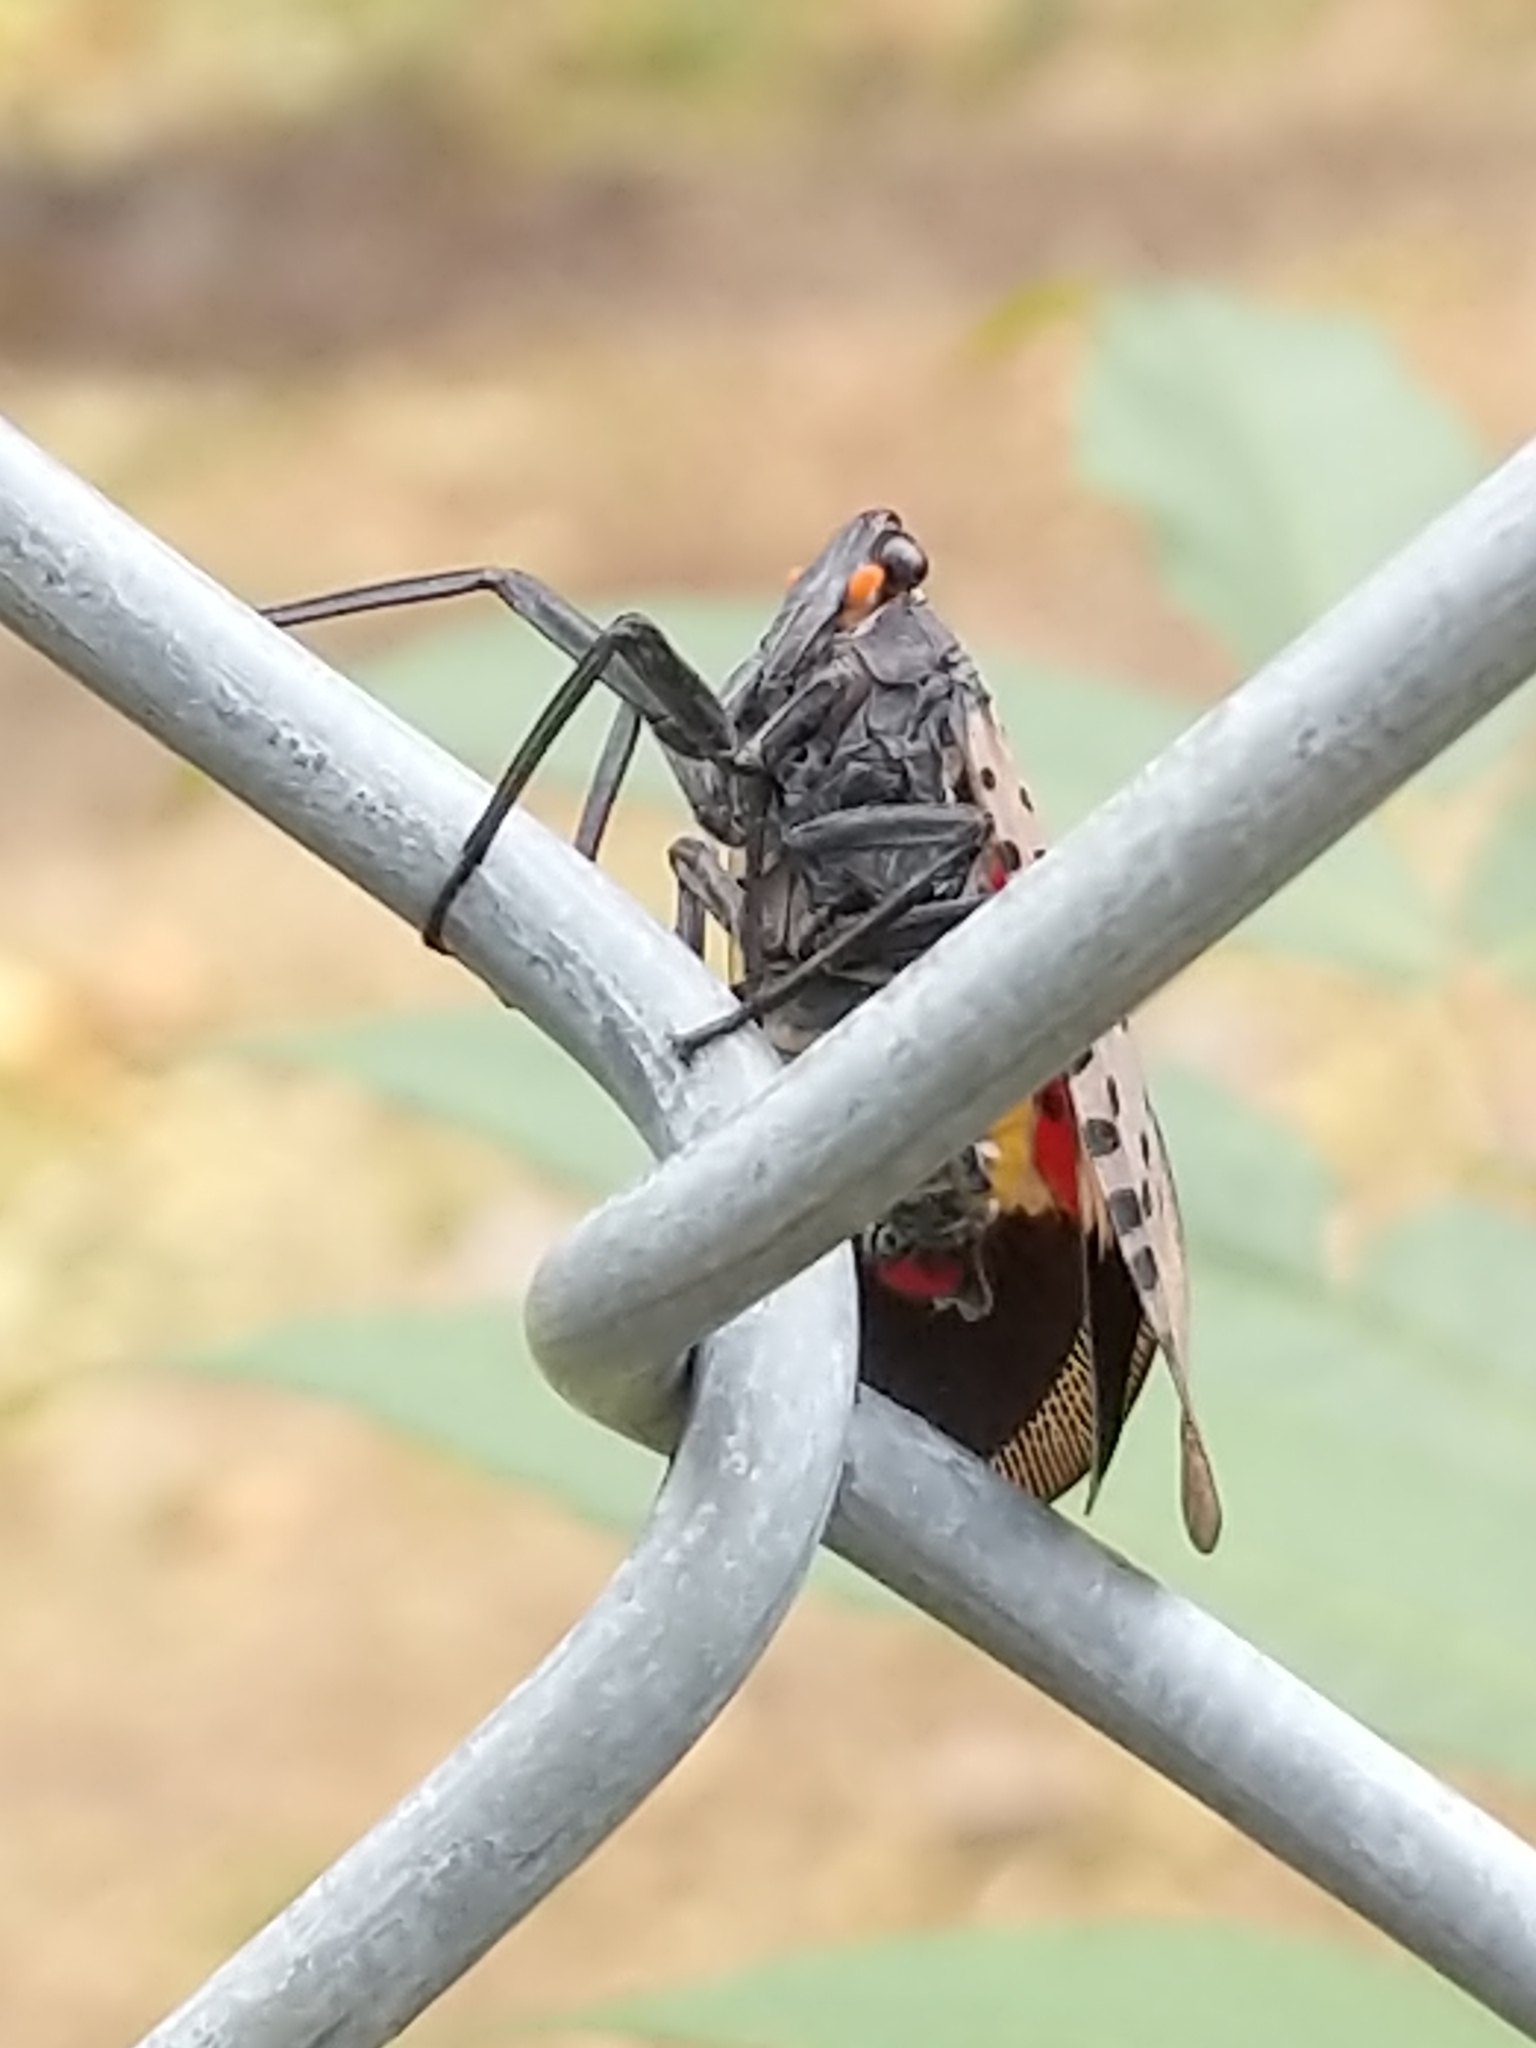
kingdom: Animalia
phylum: Arthropoda
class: Insecta
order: Hemiptera
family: Fulgoridae
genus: Lycorma
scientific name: Lycorma delicatula
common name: Spotted lanternfly
